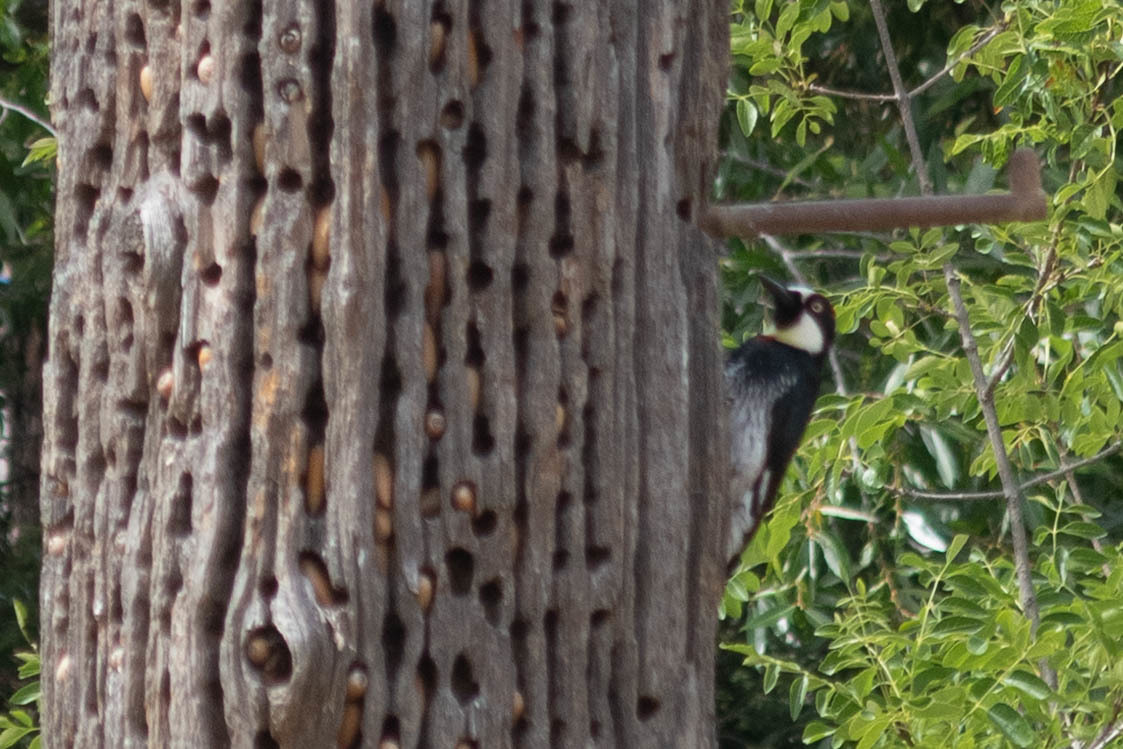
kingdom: Animalia
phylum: Chordata
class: Aves
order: Piciformes
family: Picidae
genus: Melanerpes
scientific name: Melanerpes formicivorus
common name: Acorn woodpecker
